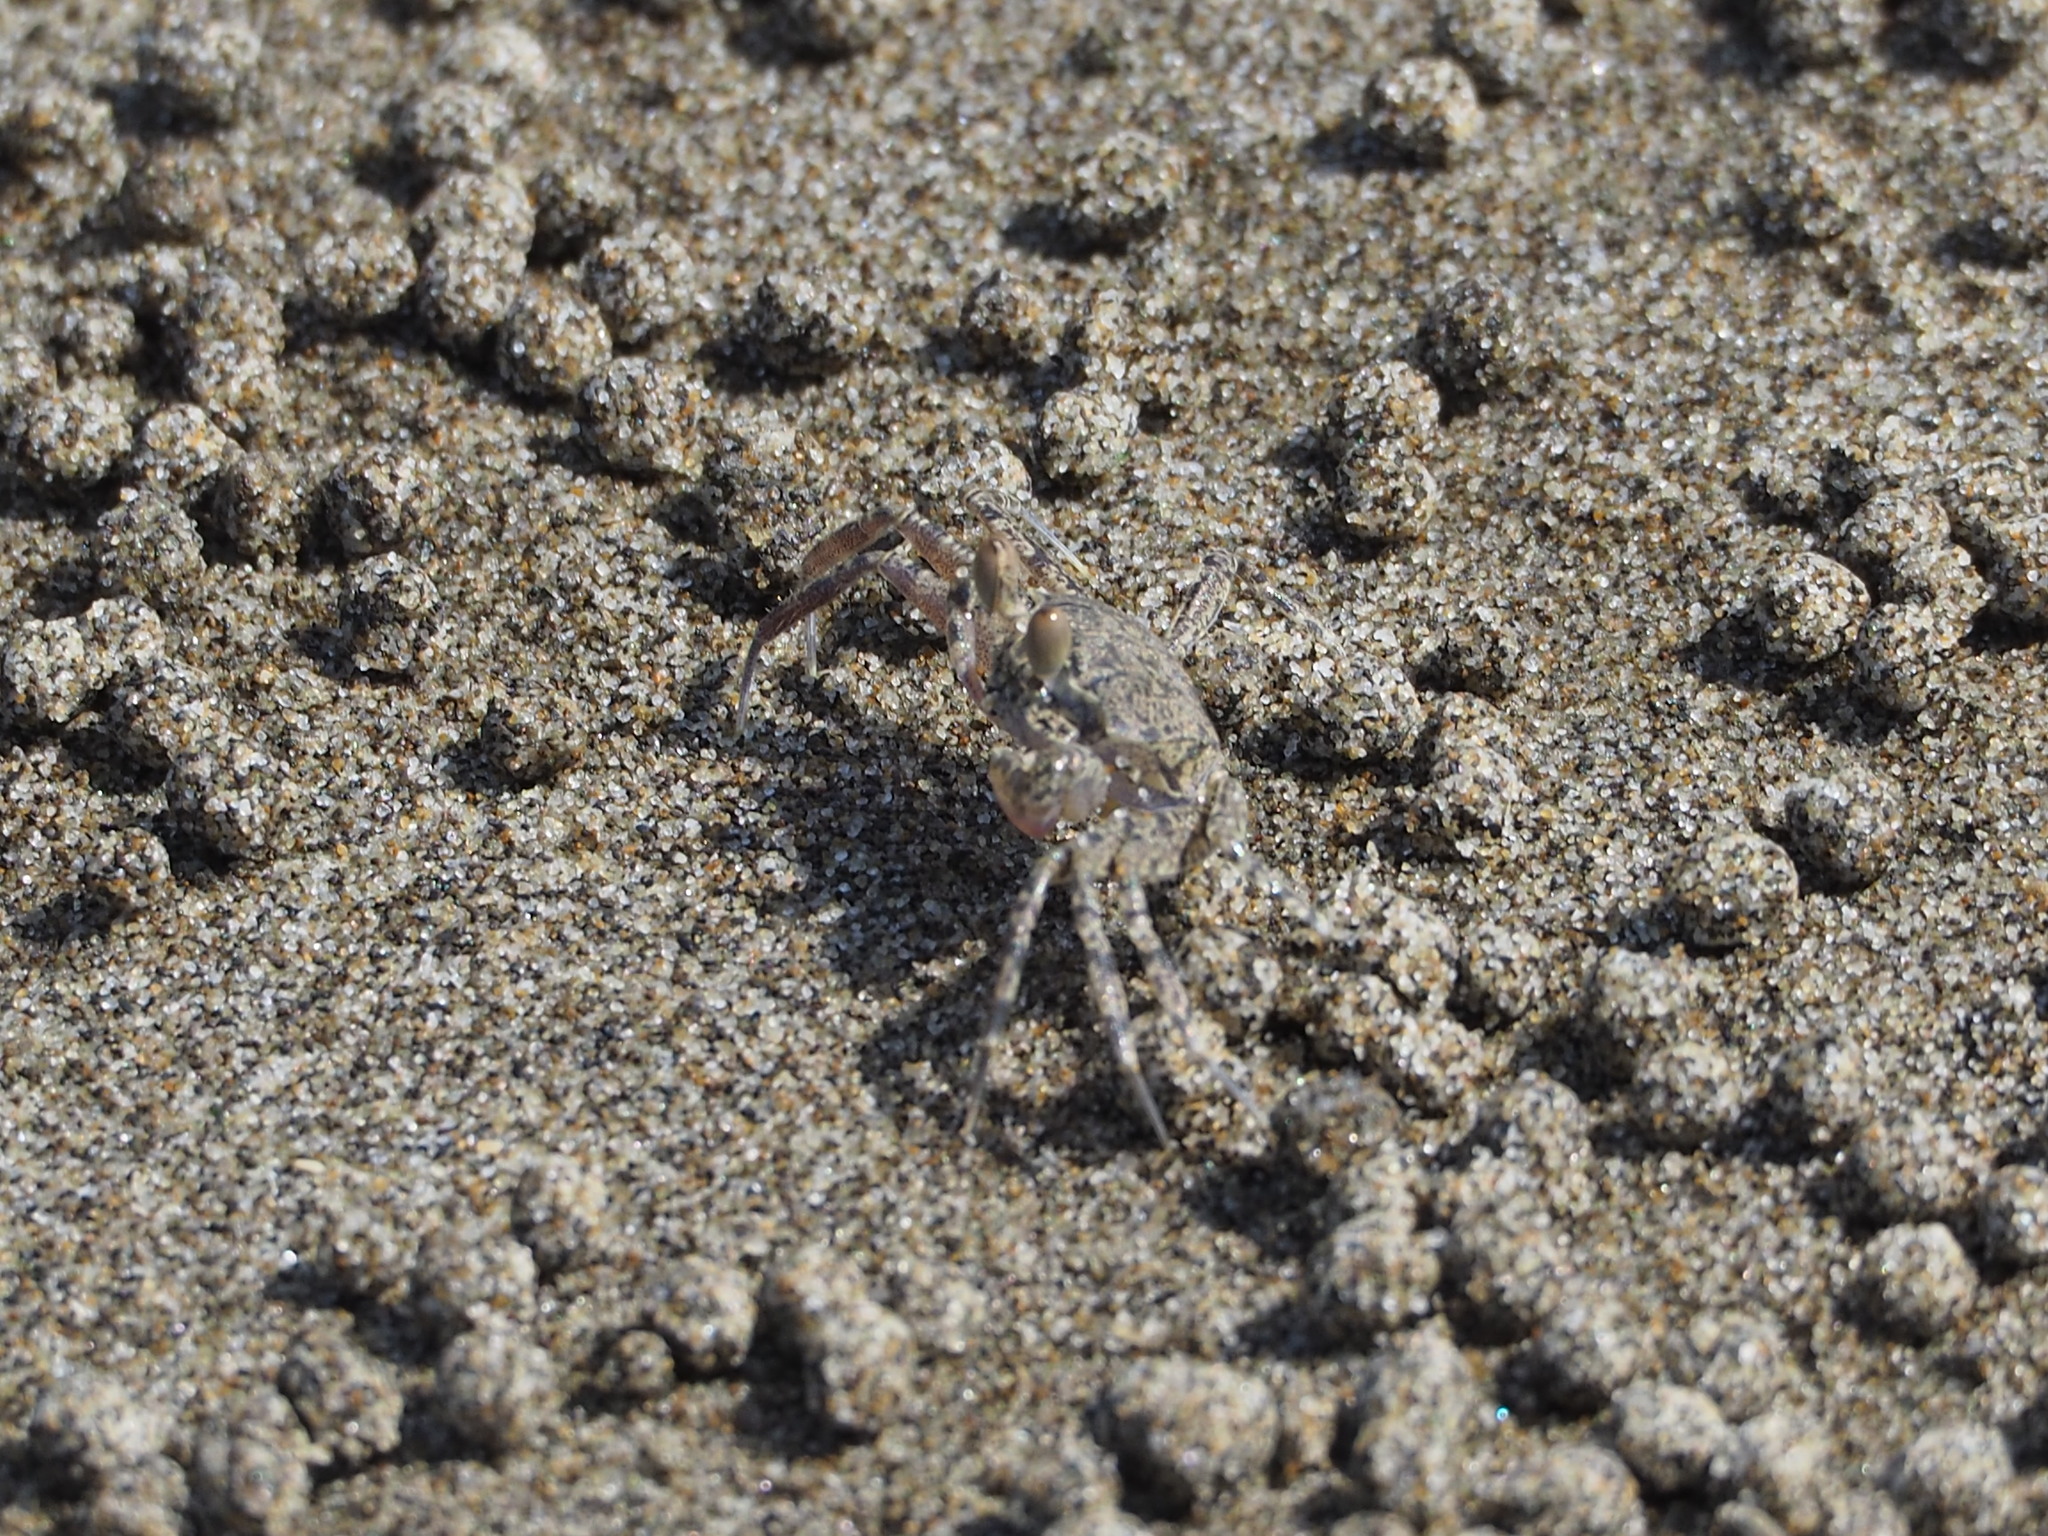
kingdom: Animalia
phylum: Arthropoda
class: Malacostraca
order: Decapoda
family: Ocypodidae
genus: Ocypode
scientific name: Ocypode stimpsoni
